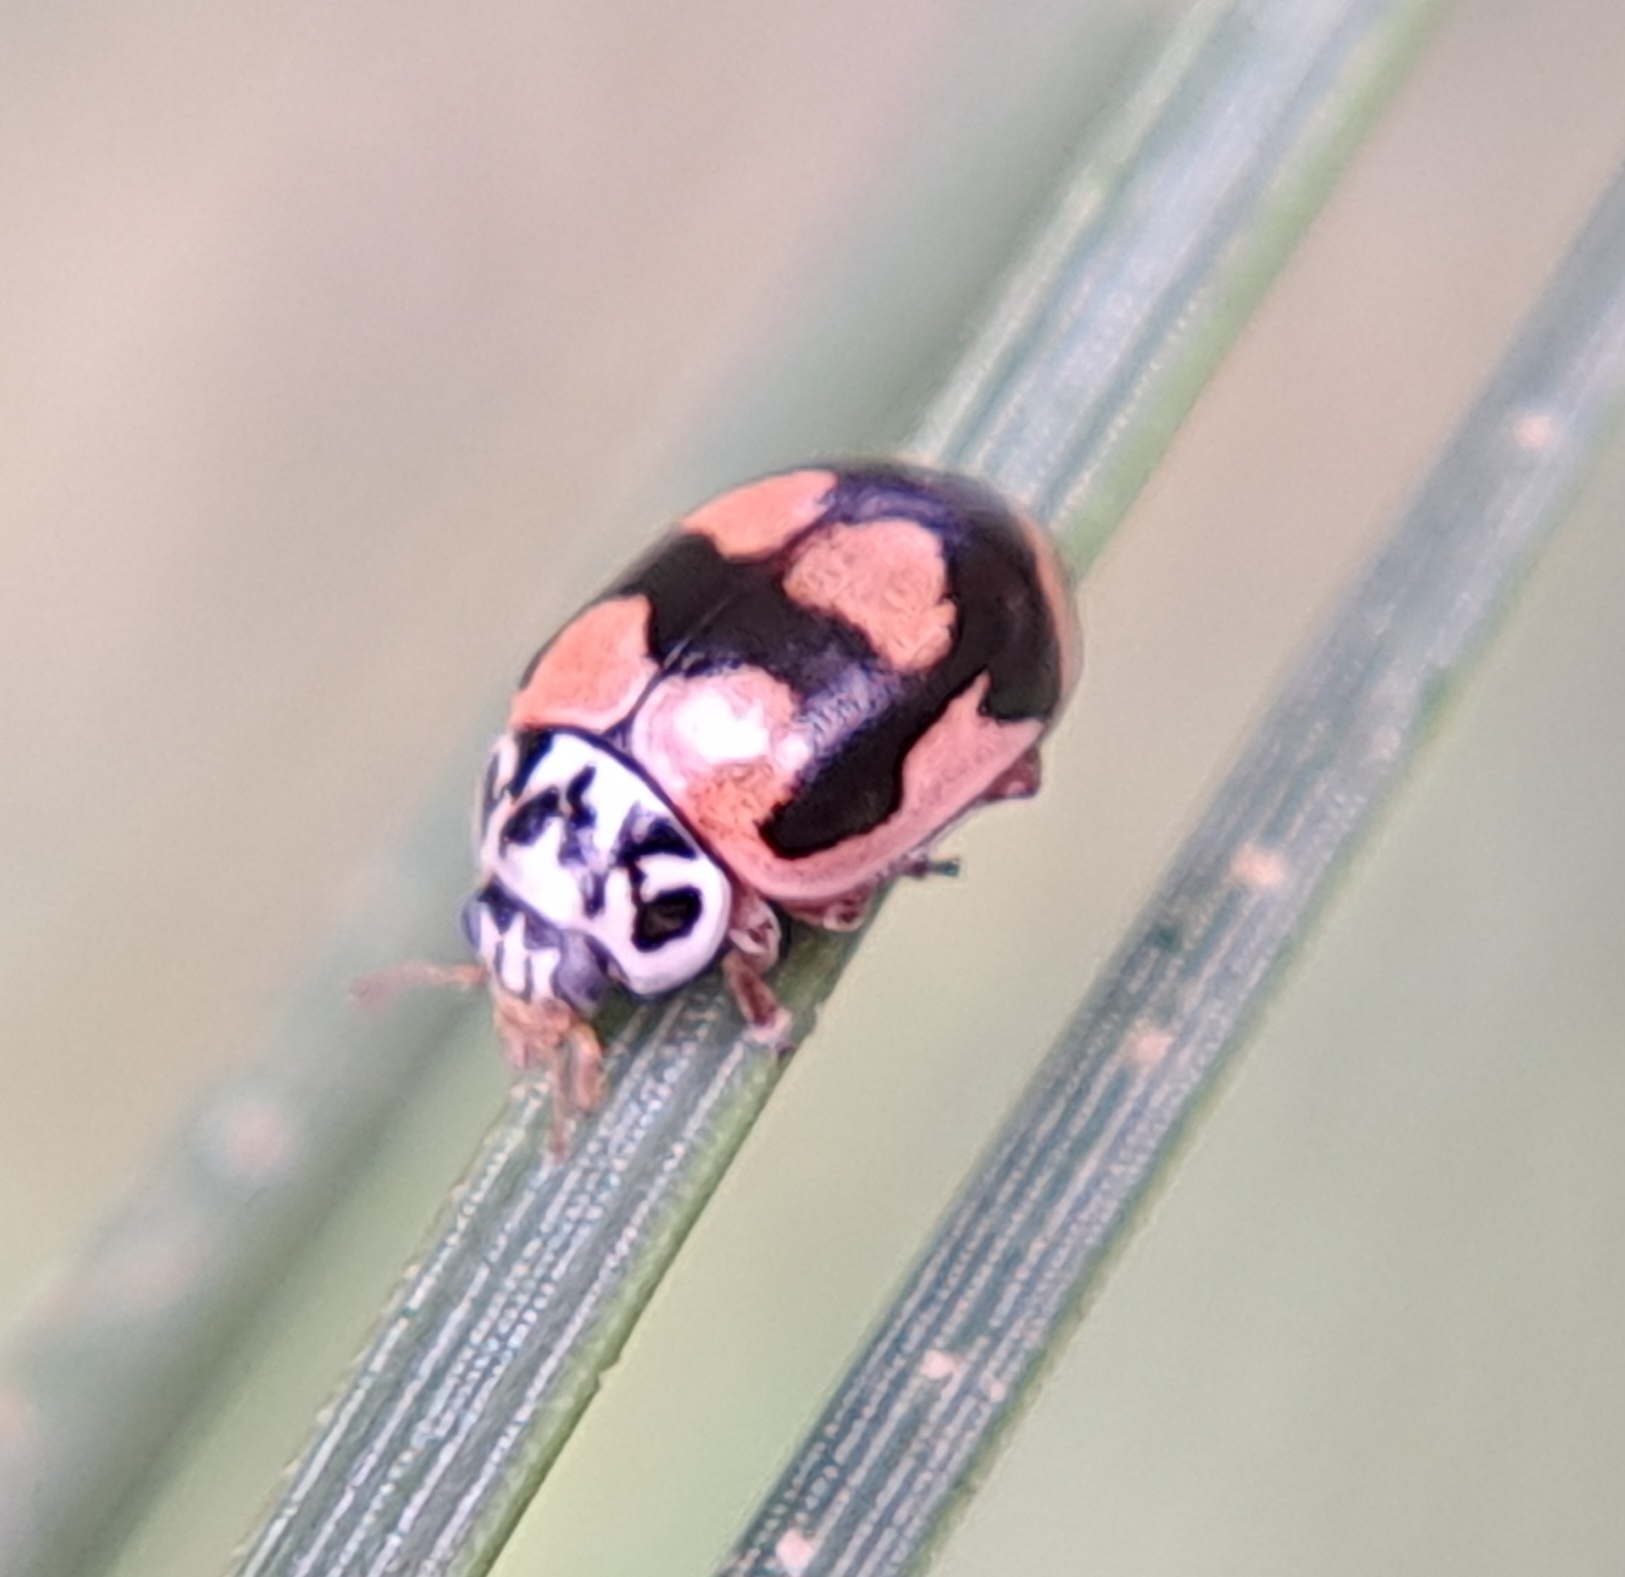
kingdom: Animalia
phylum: Arthropoda
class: Insecta
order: Coleoptera
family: Coccinellidae
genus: Mulsantina
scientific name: Mulsantina picta
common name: Painted ladybird
